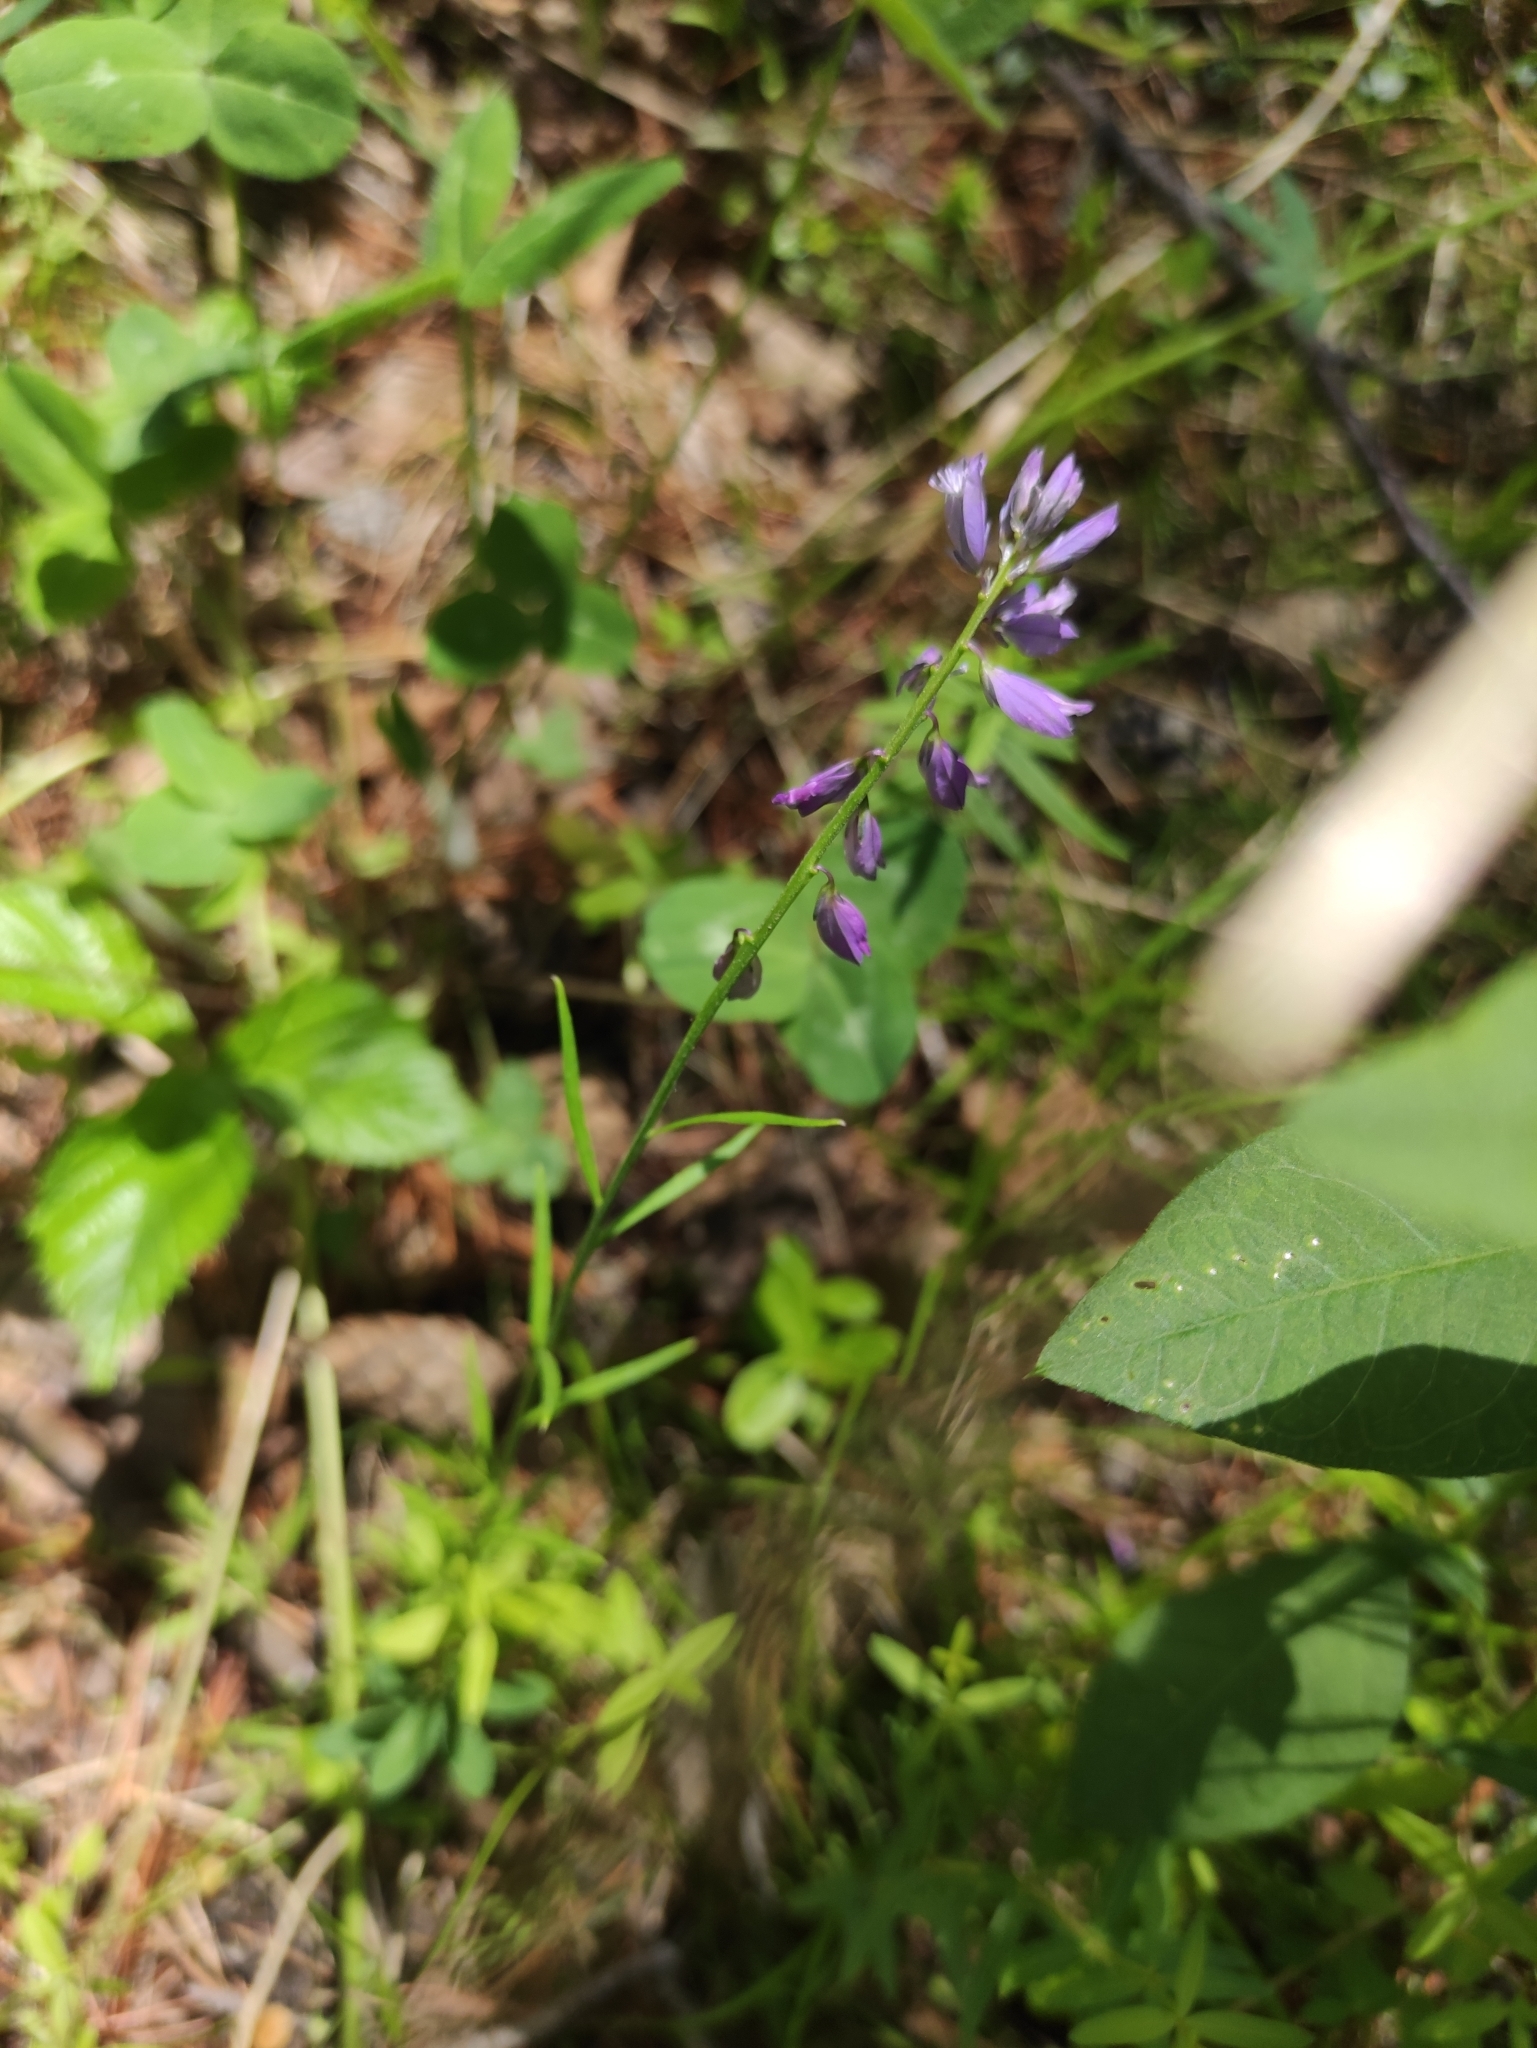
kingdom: Plantae
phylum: Tracheophyta
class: Magnoliopsida
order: Fabales
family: Polygalaceae
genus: Polygala
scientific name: Polygala comosa
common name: Tufted milkwort
